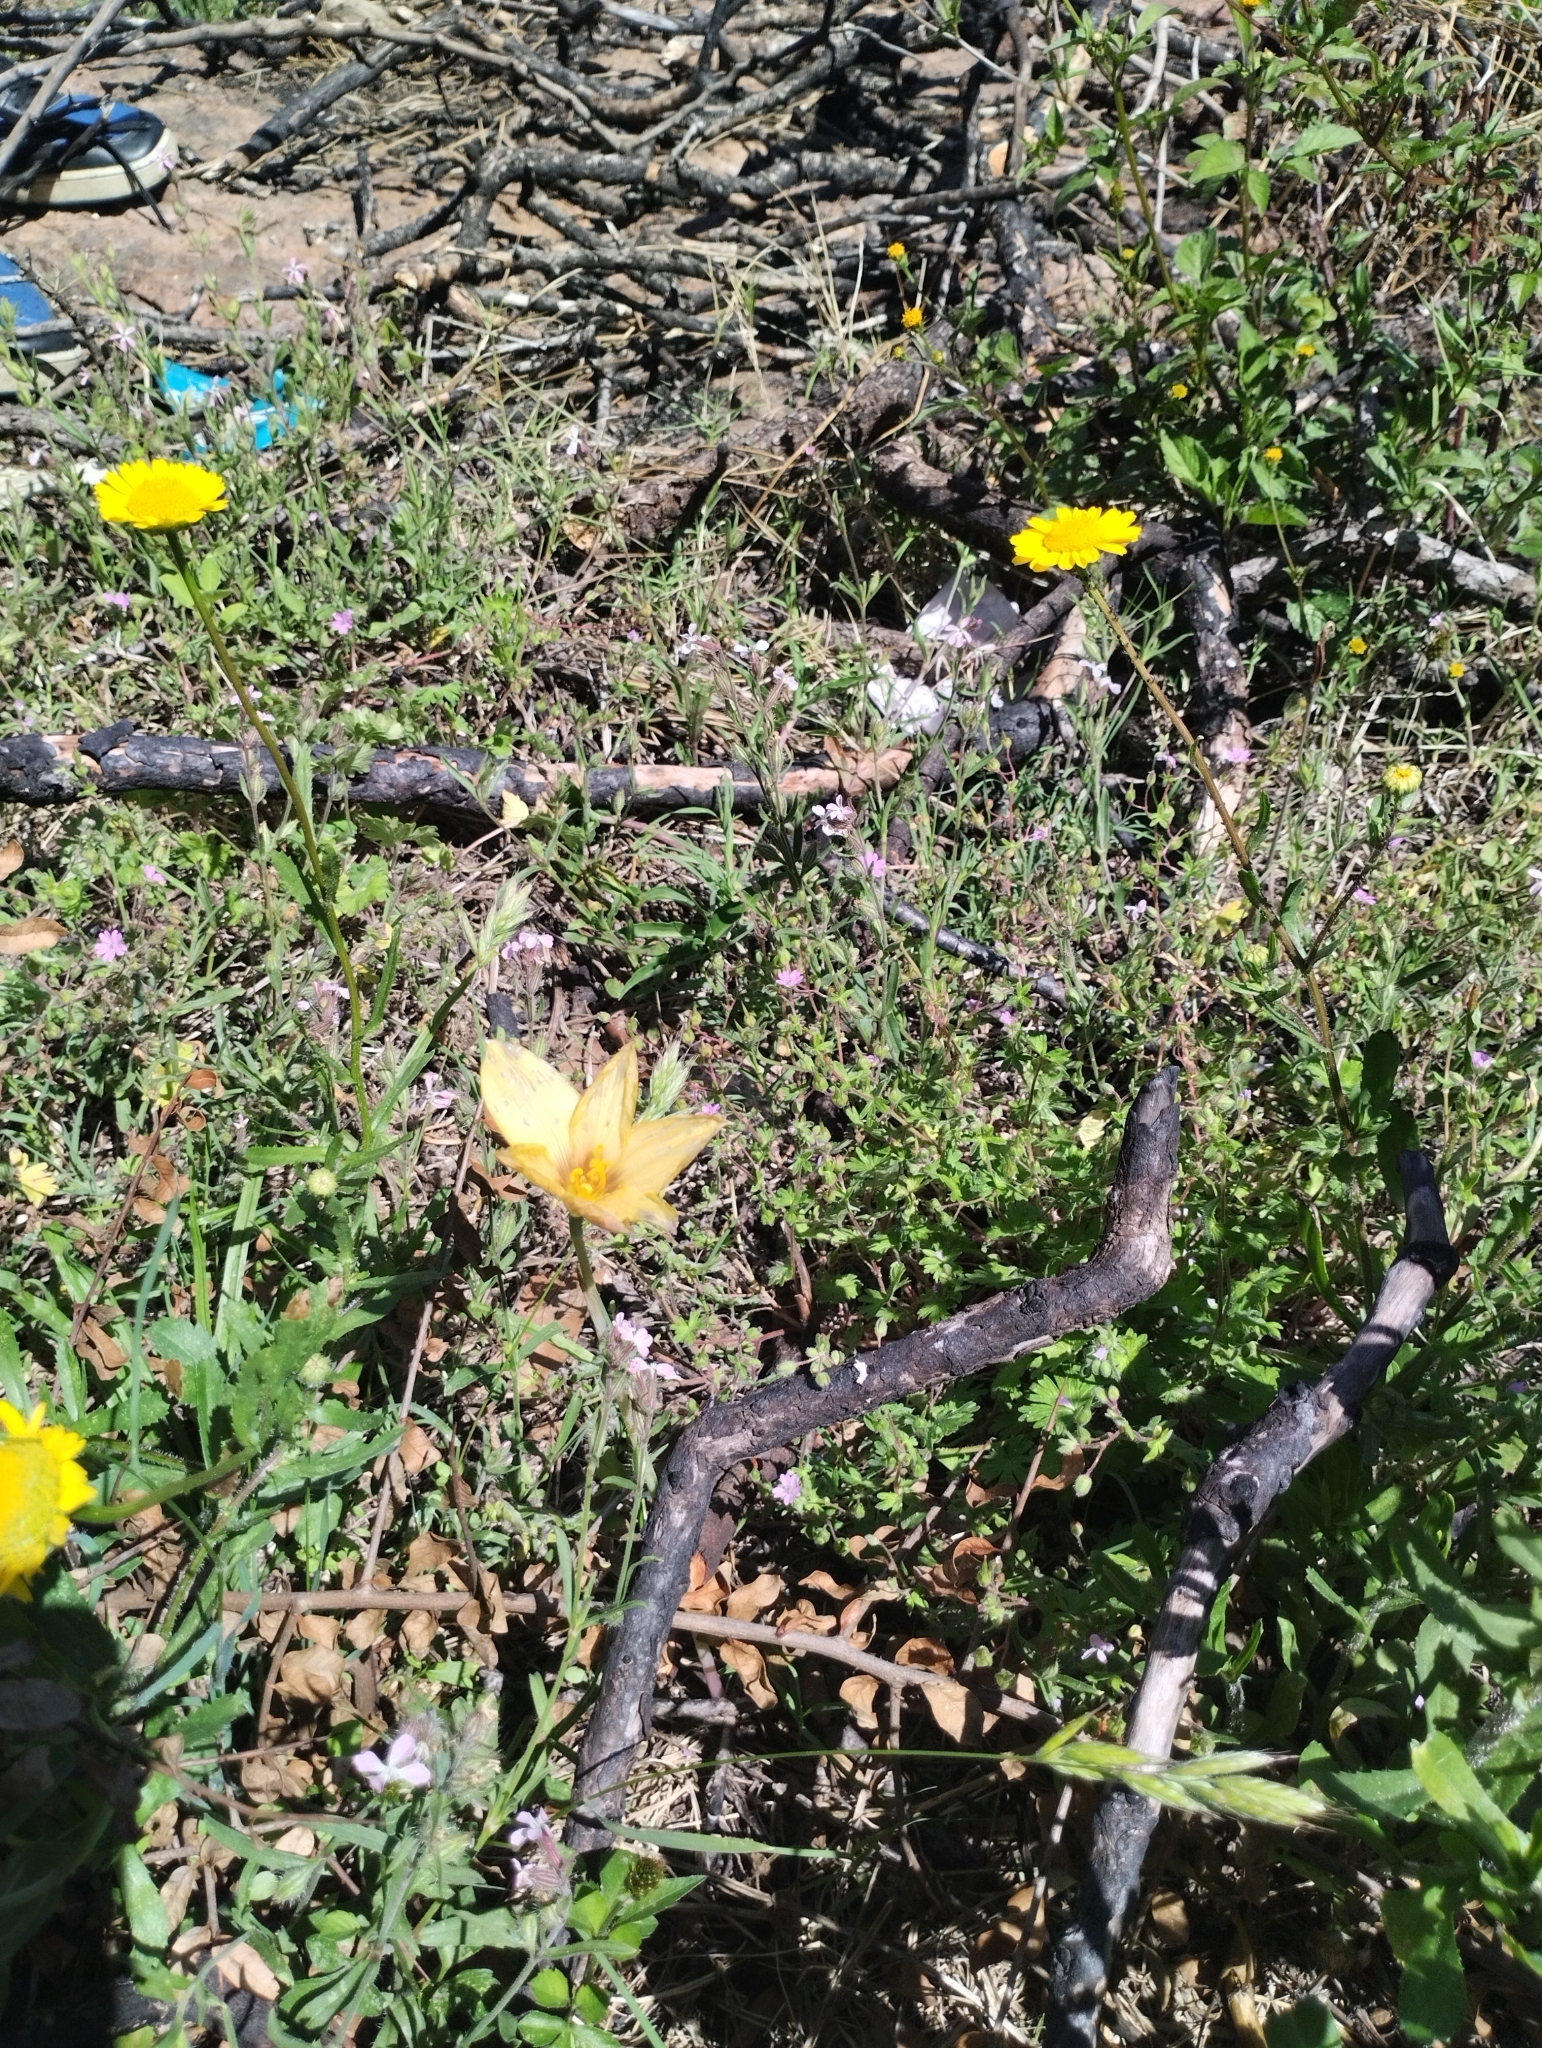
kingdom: Plantae
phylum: Tracheophyta
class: Liliopsida
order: Asparagales
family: Amaryllidaceae
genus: Zephyranthes
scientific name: Zephyranthes tubispatha
